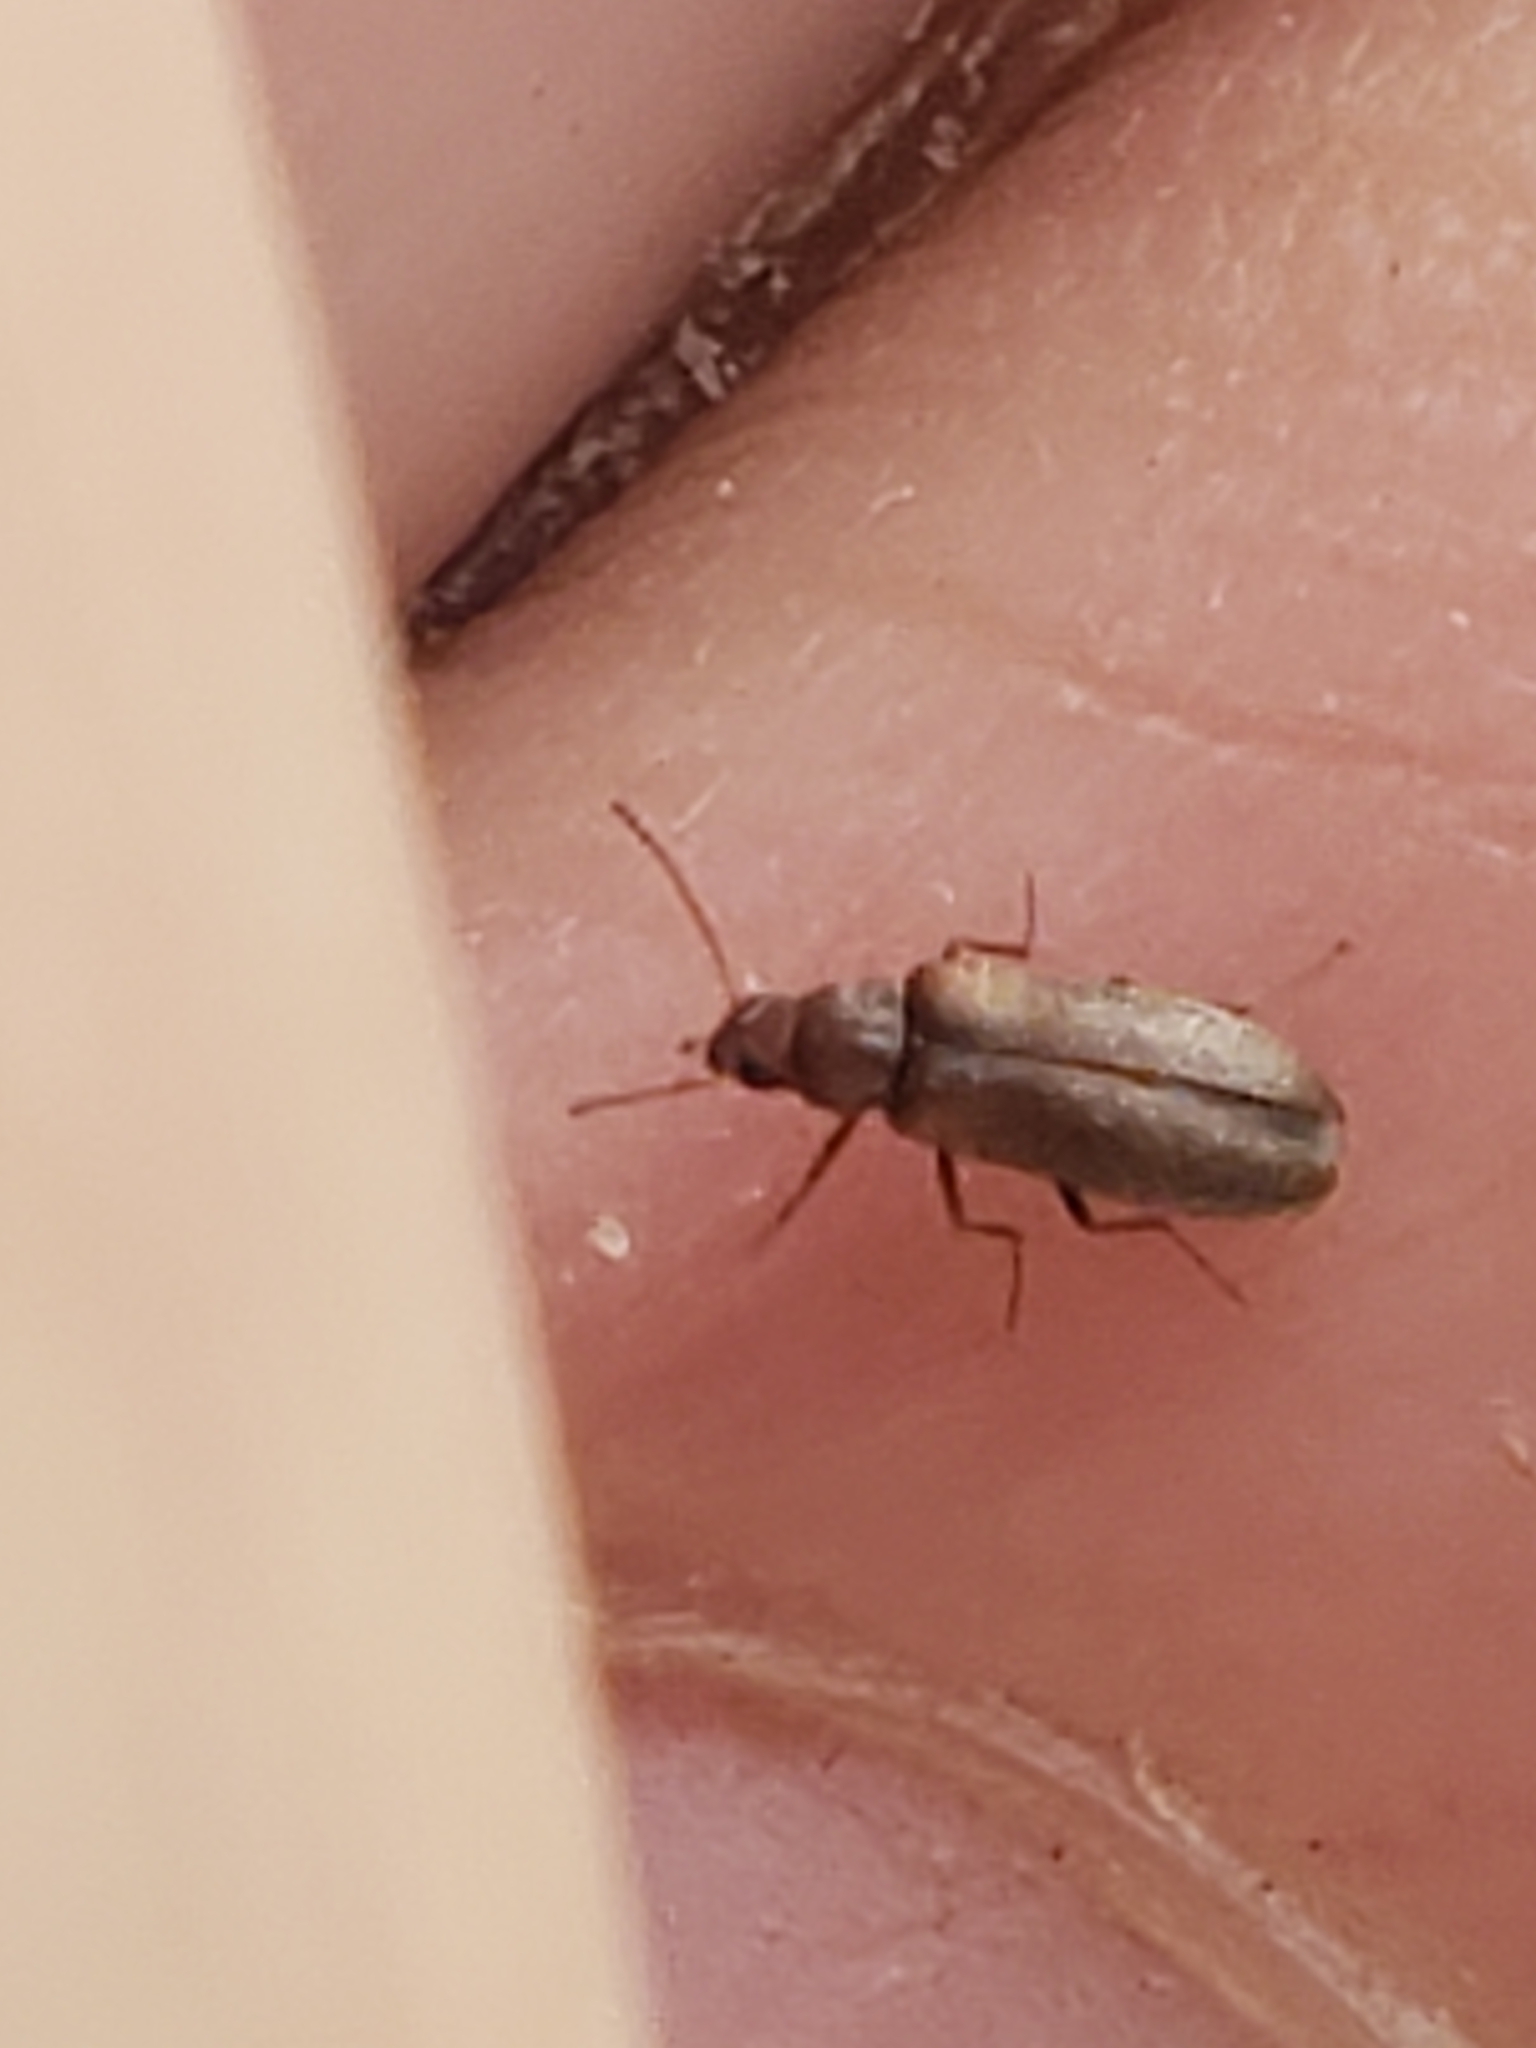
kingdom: Animalia
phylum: Arthropoda
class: Insecta
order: Coleoptera
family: Melandryidae
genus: Microtonus
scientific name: Microtonus sericans
